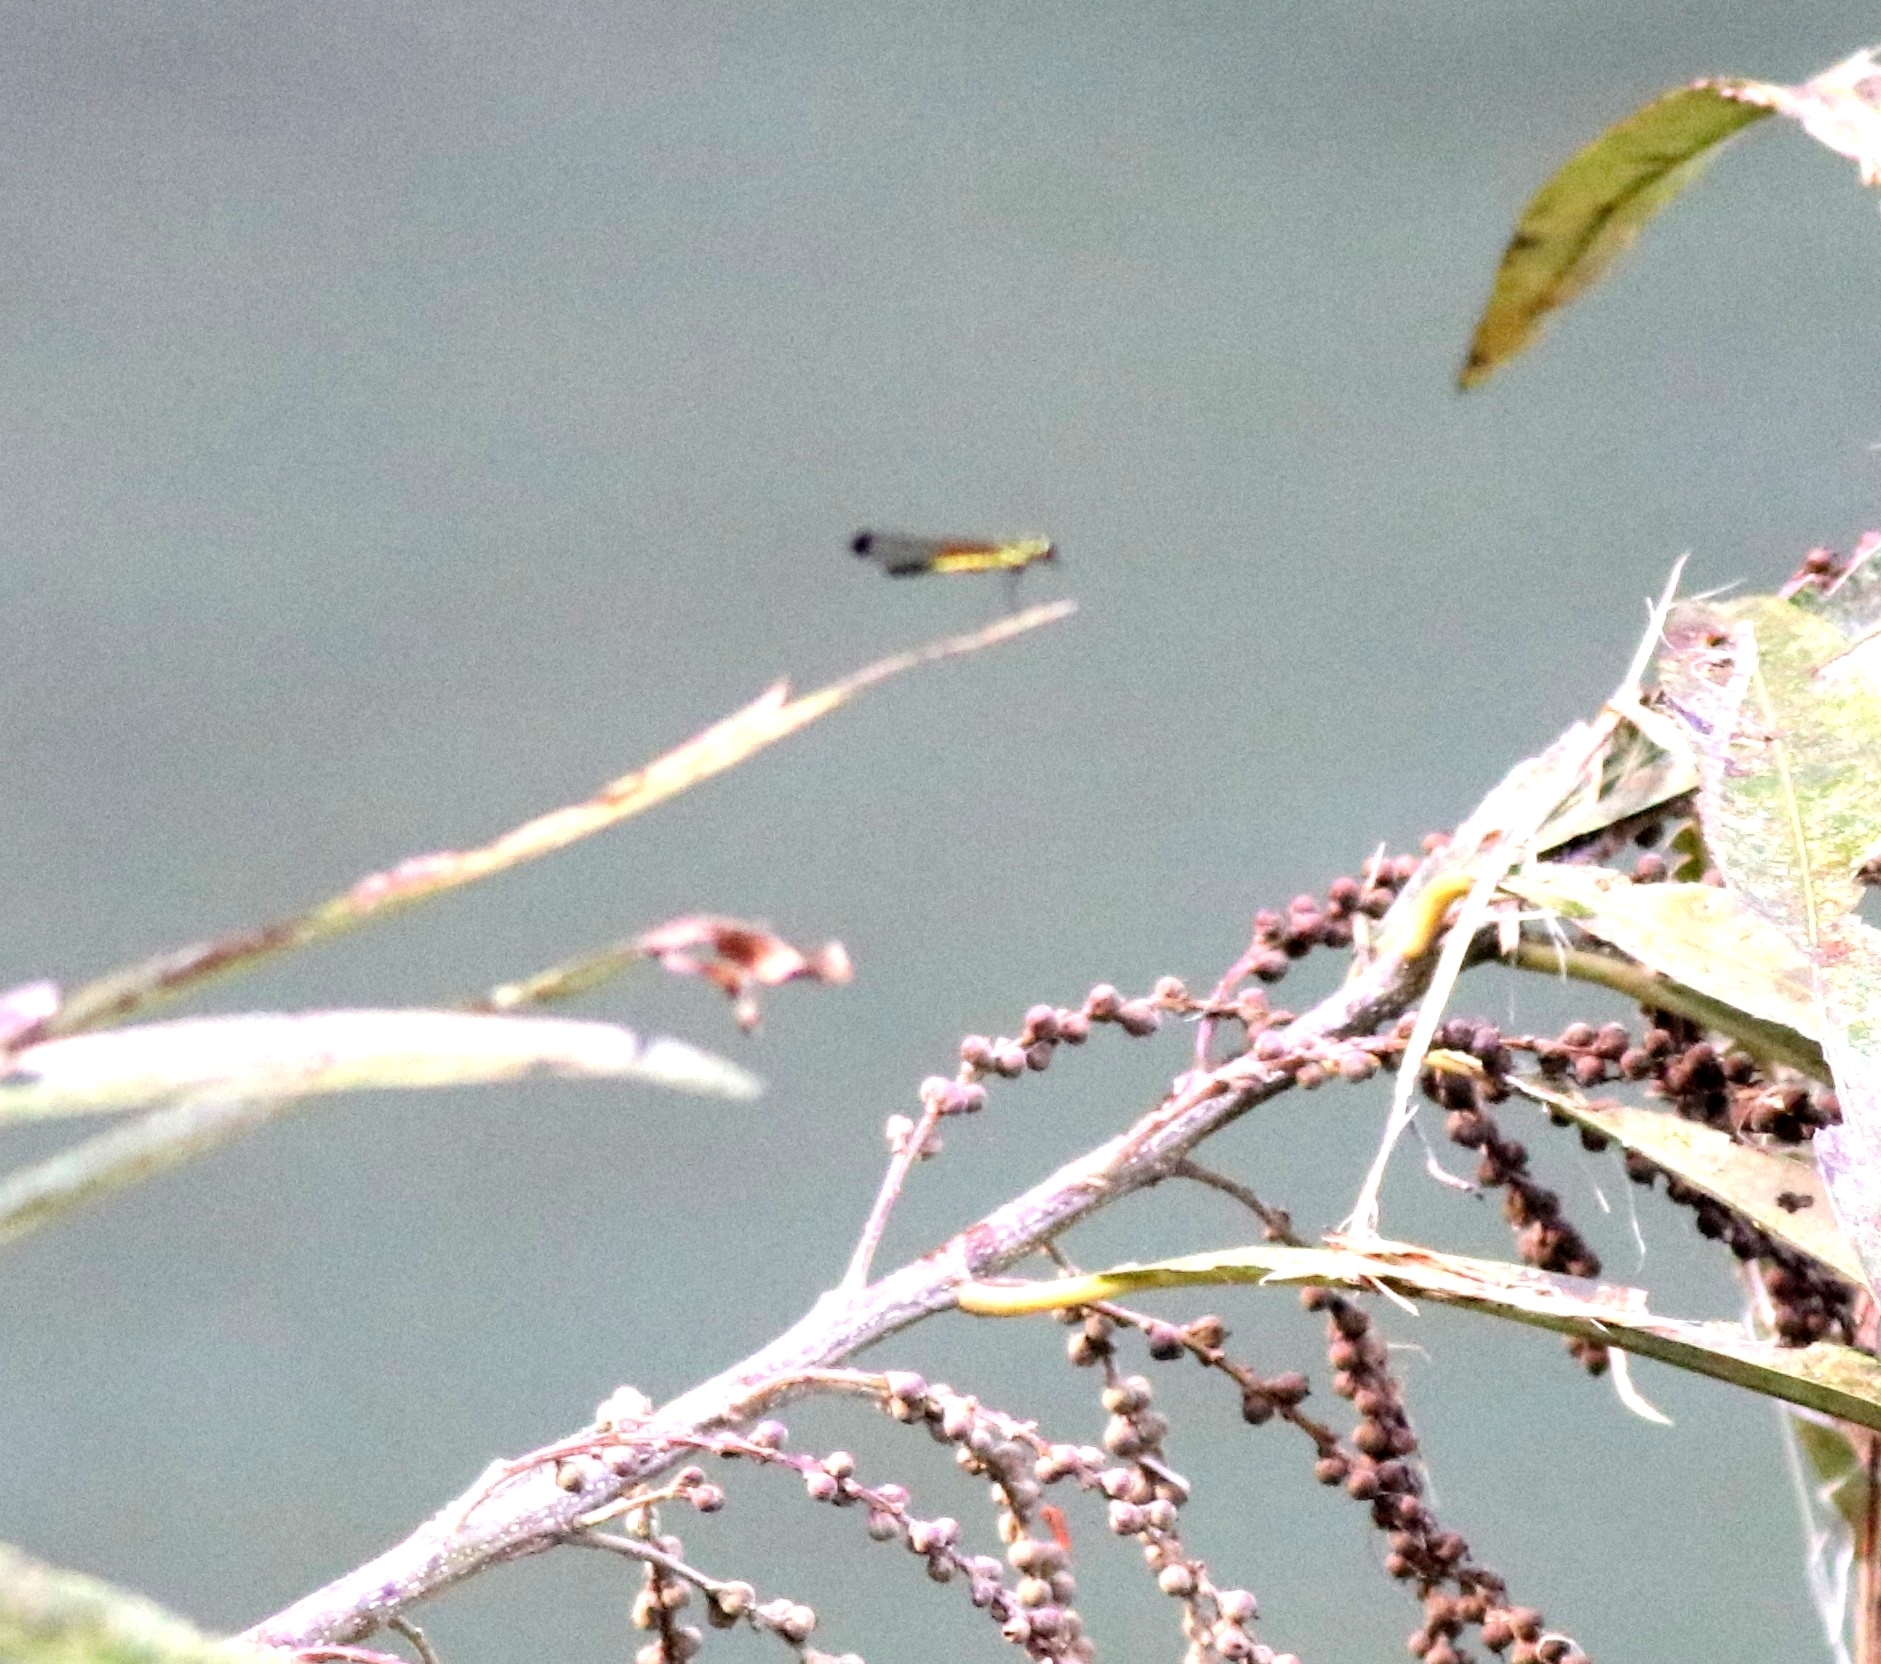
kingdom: Animalia
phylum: Arthropoda
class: Insecta
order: Odonata
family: Chlorocyphidae
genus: Libellago
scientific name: Libellago indica
